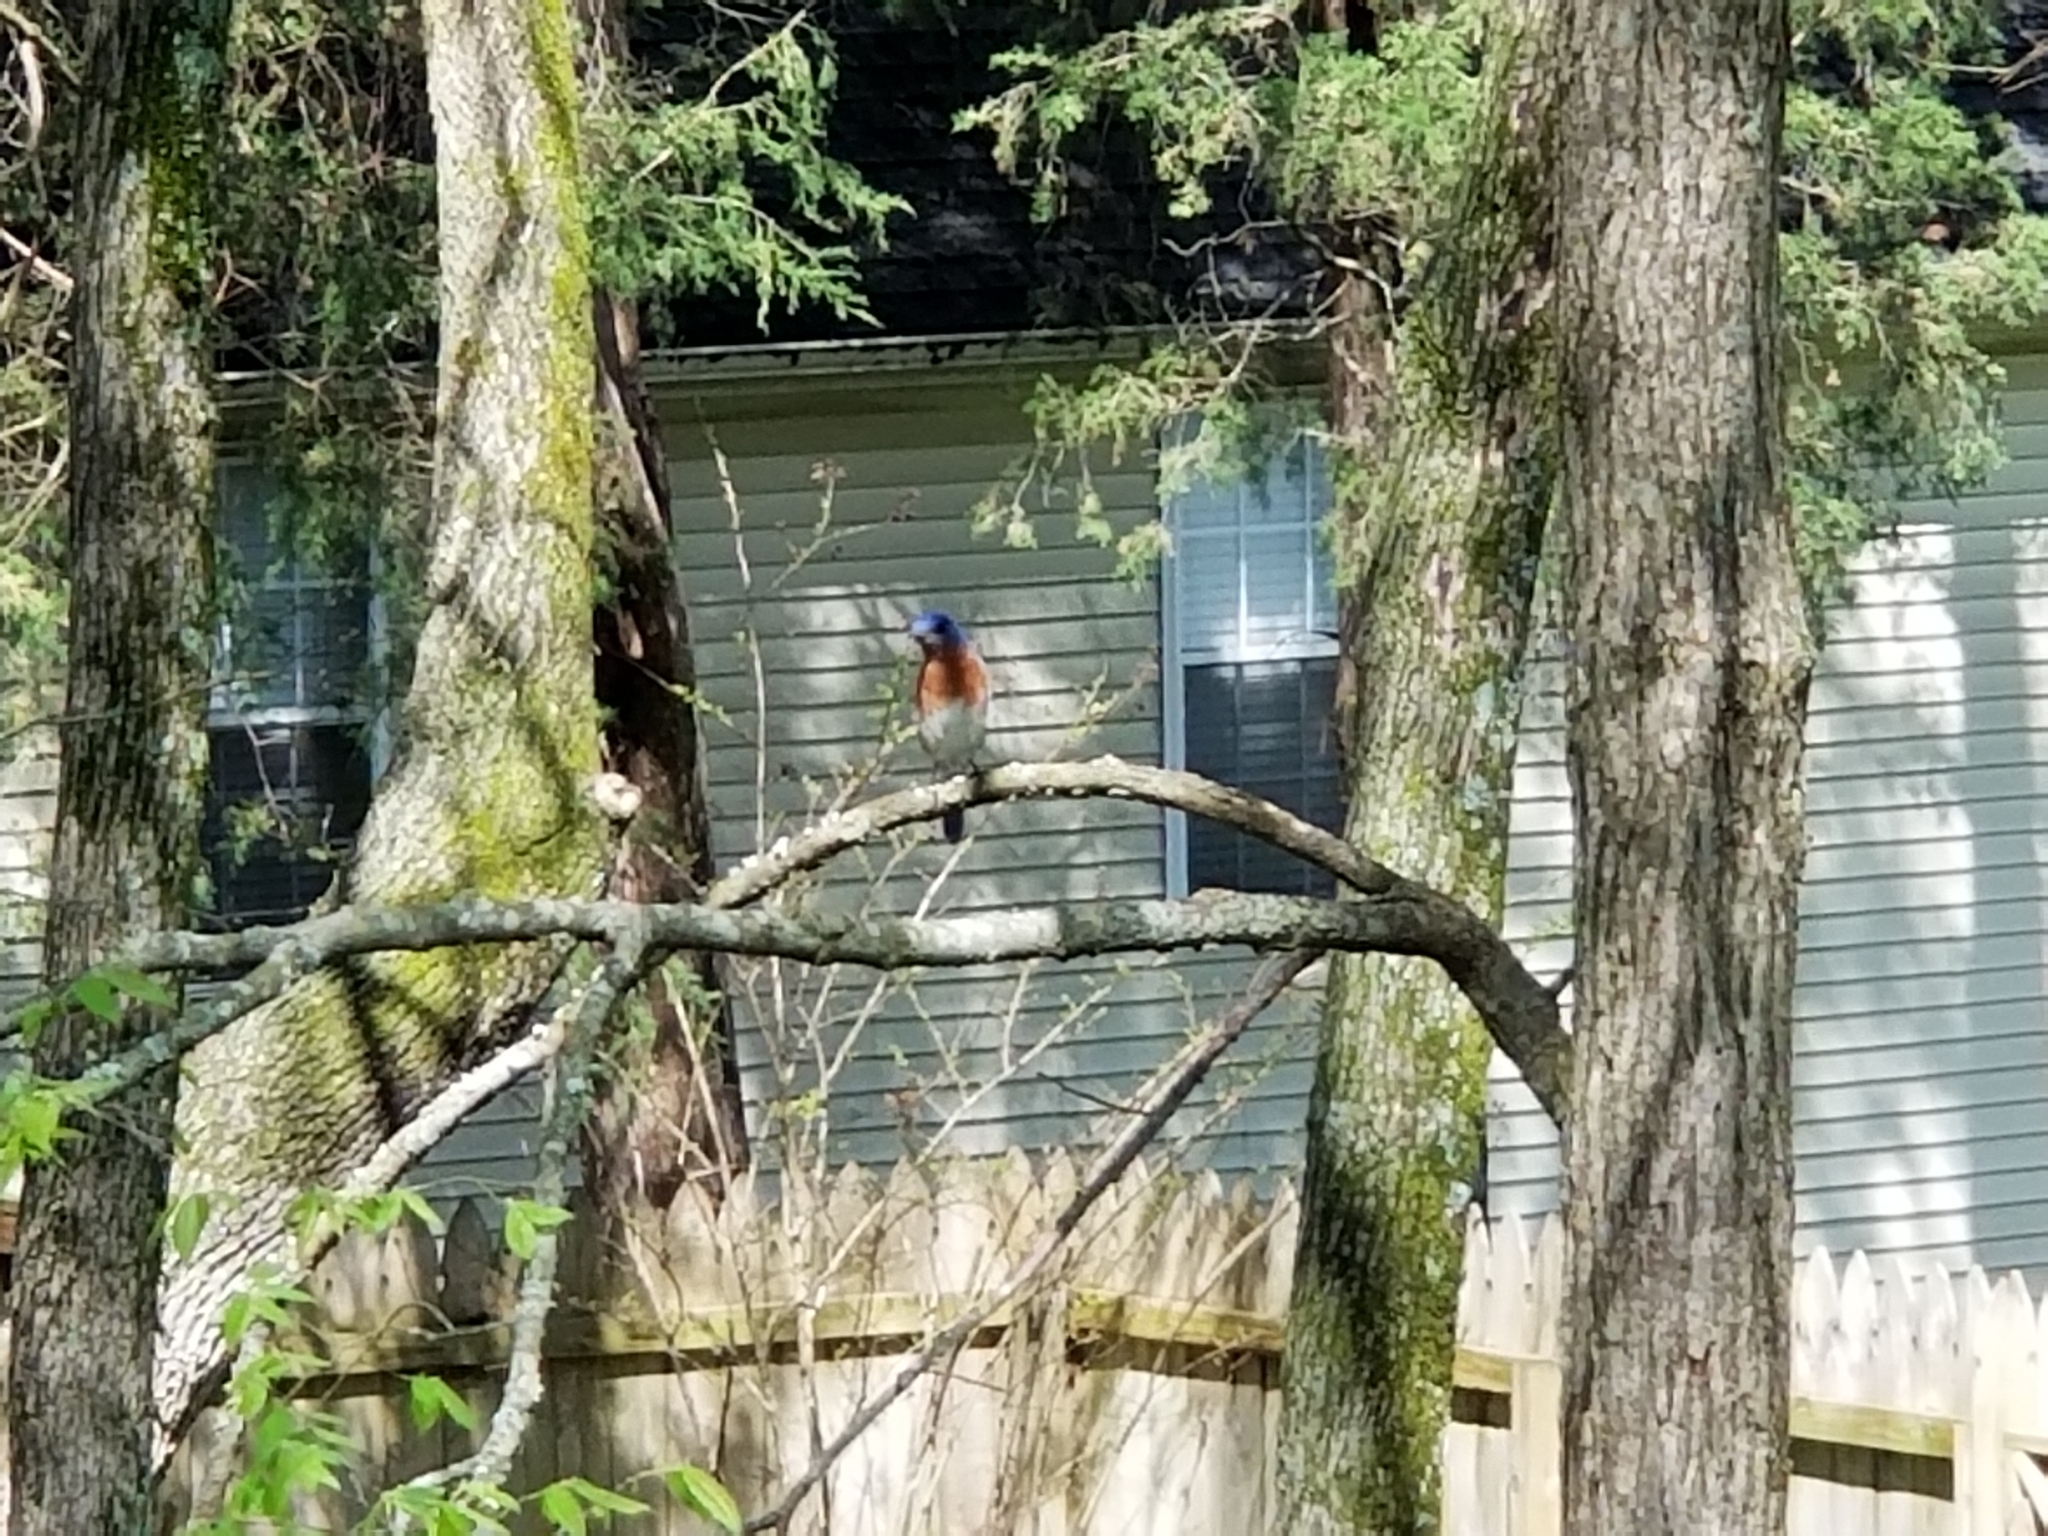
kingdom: Animalia
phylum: Chordata
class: Aves
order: Passeriformes
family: Turdidae
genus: Sialia
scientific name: Sialia sialis
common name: Eastern bluebird
